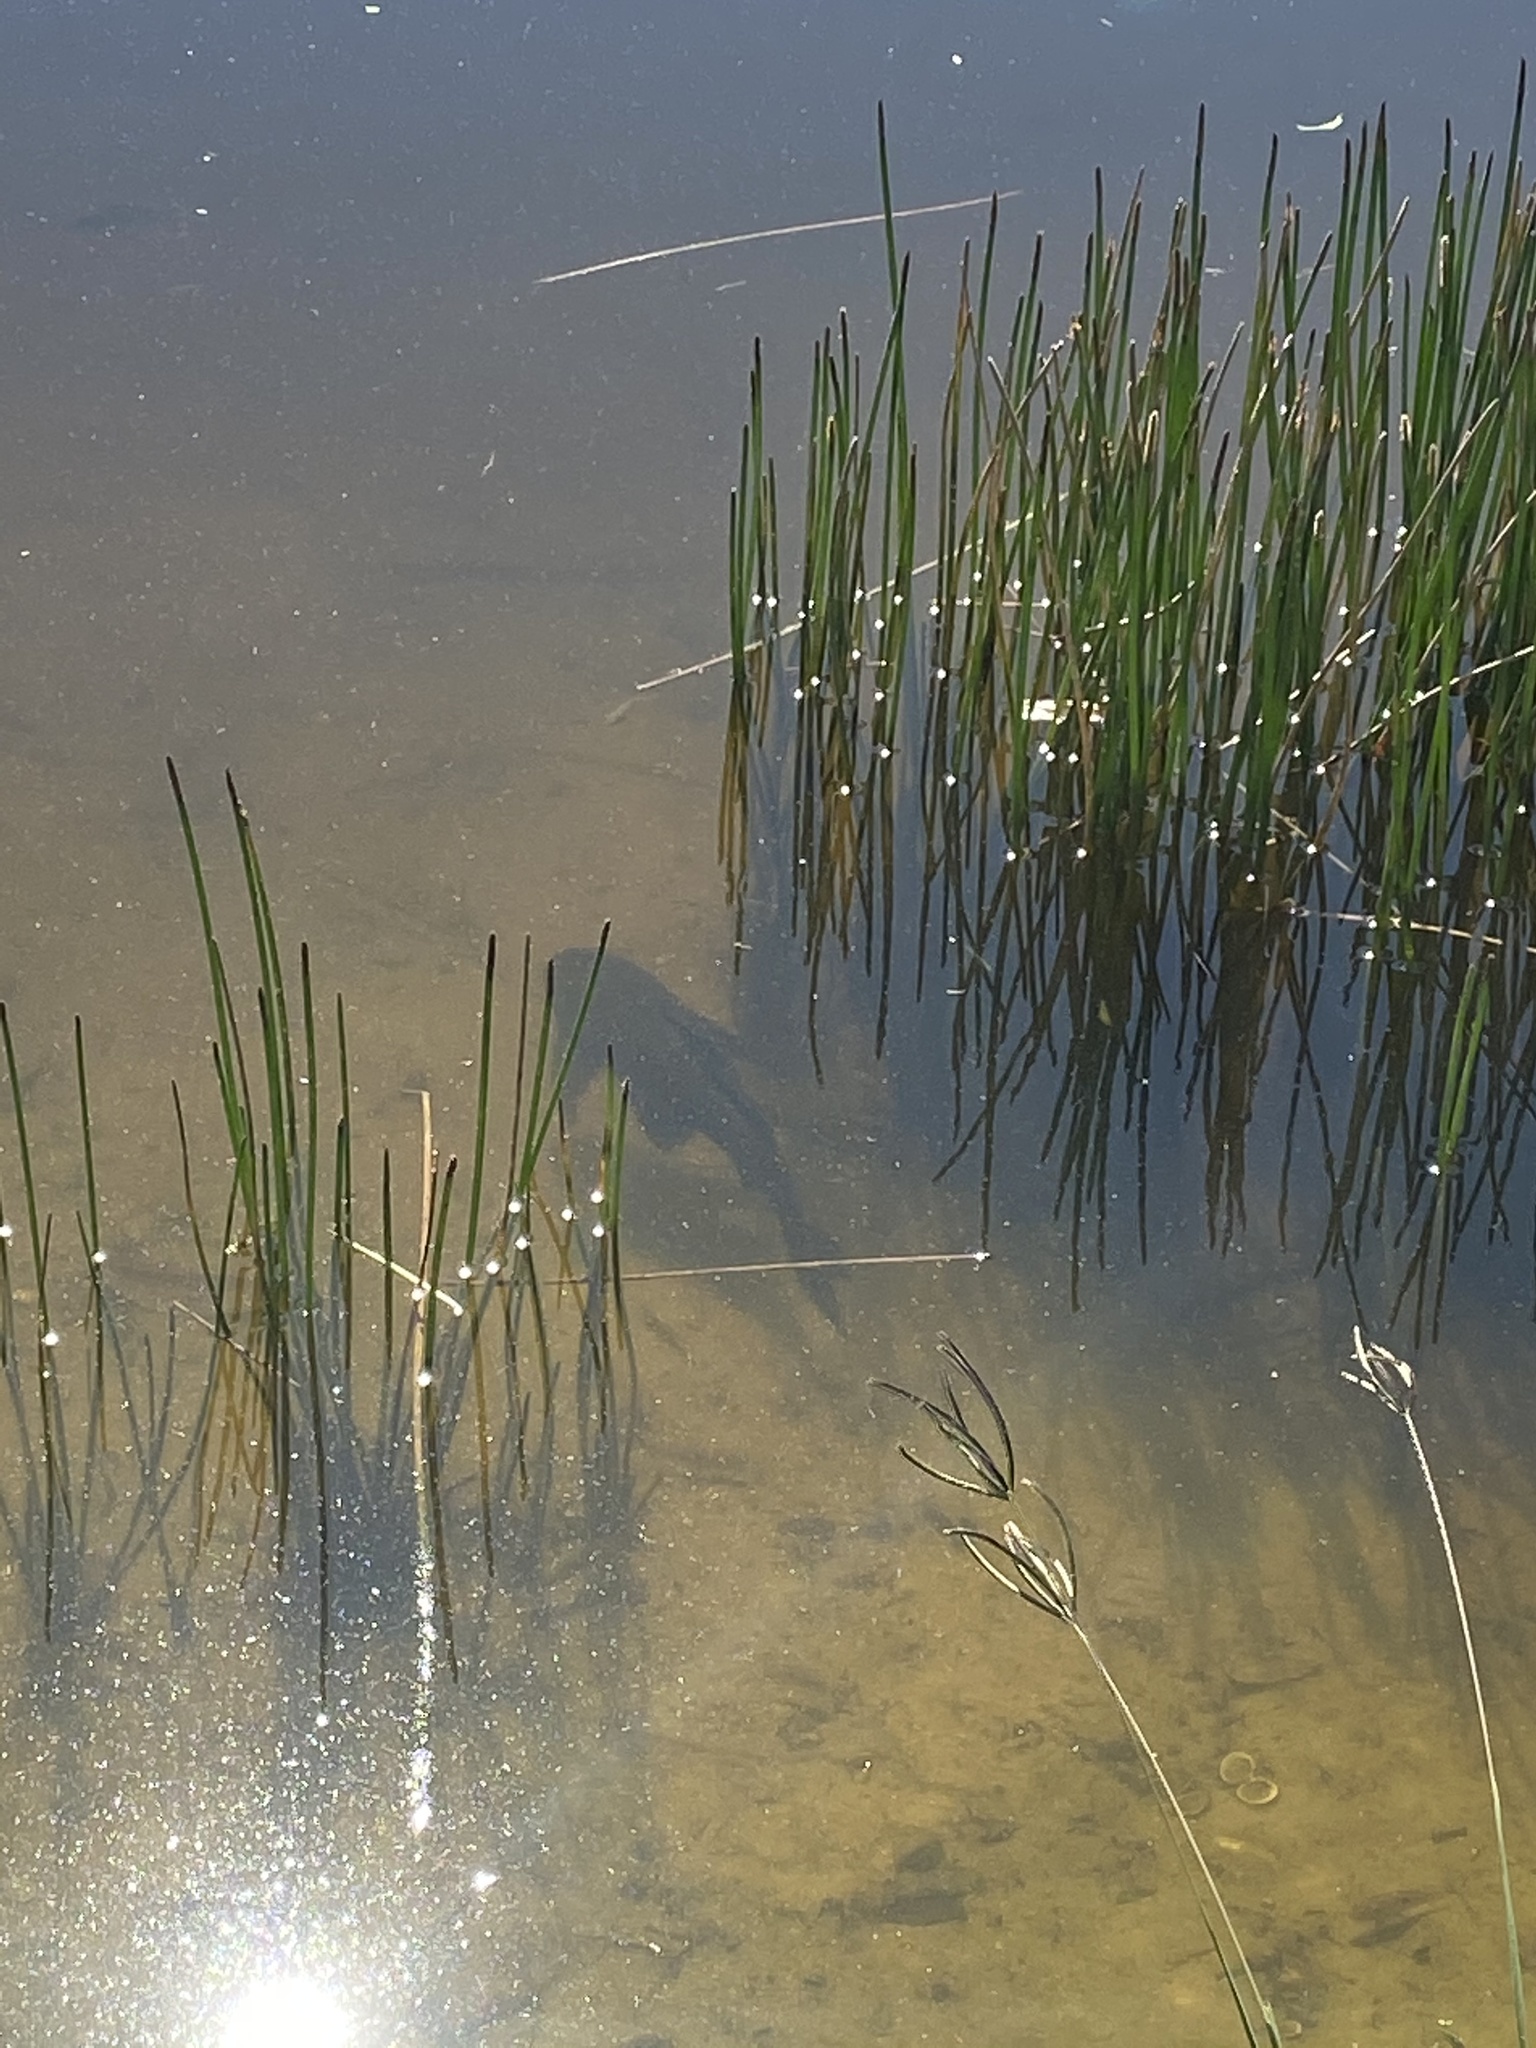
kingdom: Animalia
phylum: Chordata
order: Siluriformes
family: Loricariidae
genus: Pterygoplichthys
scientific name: Pterygoplichthys
